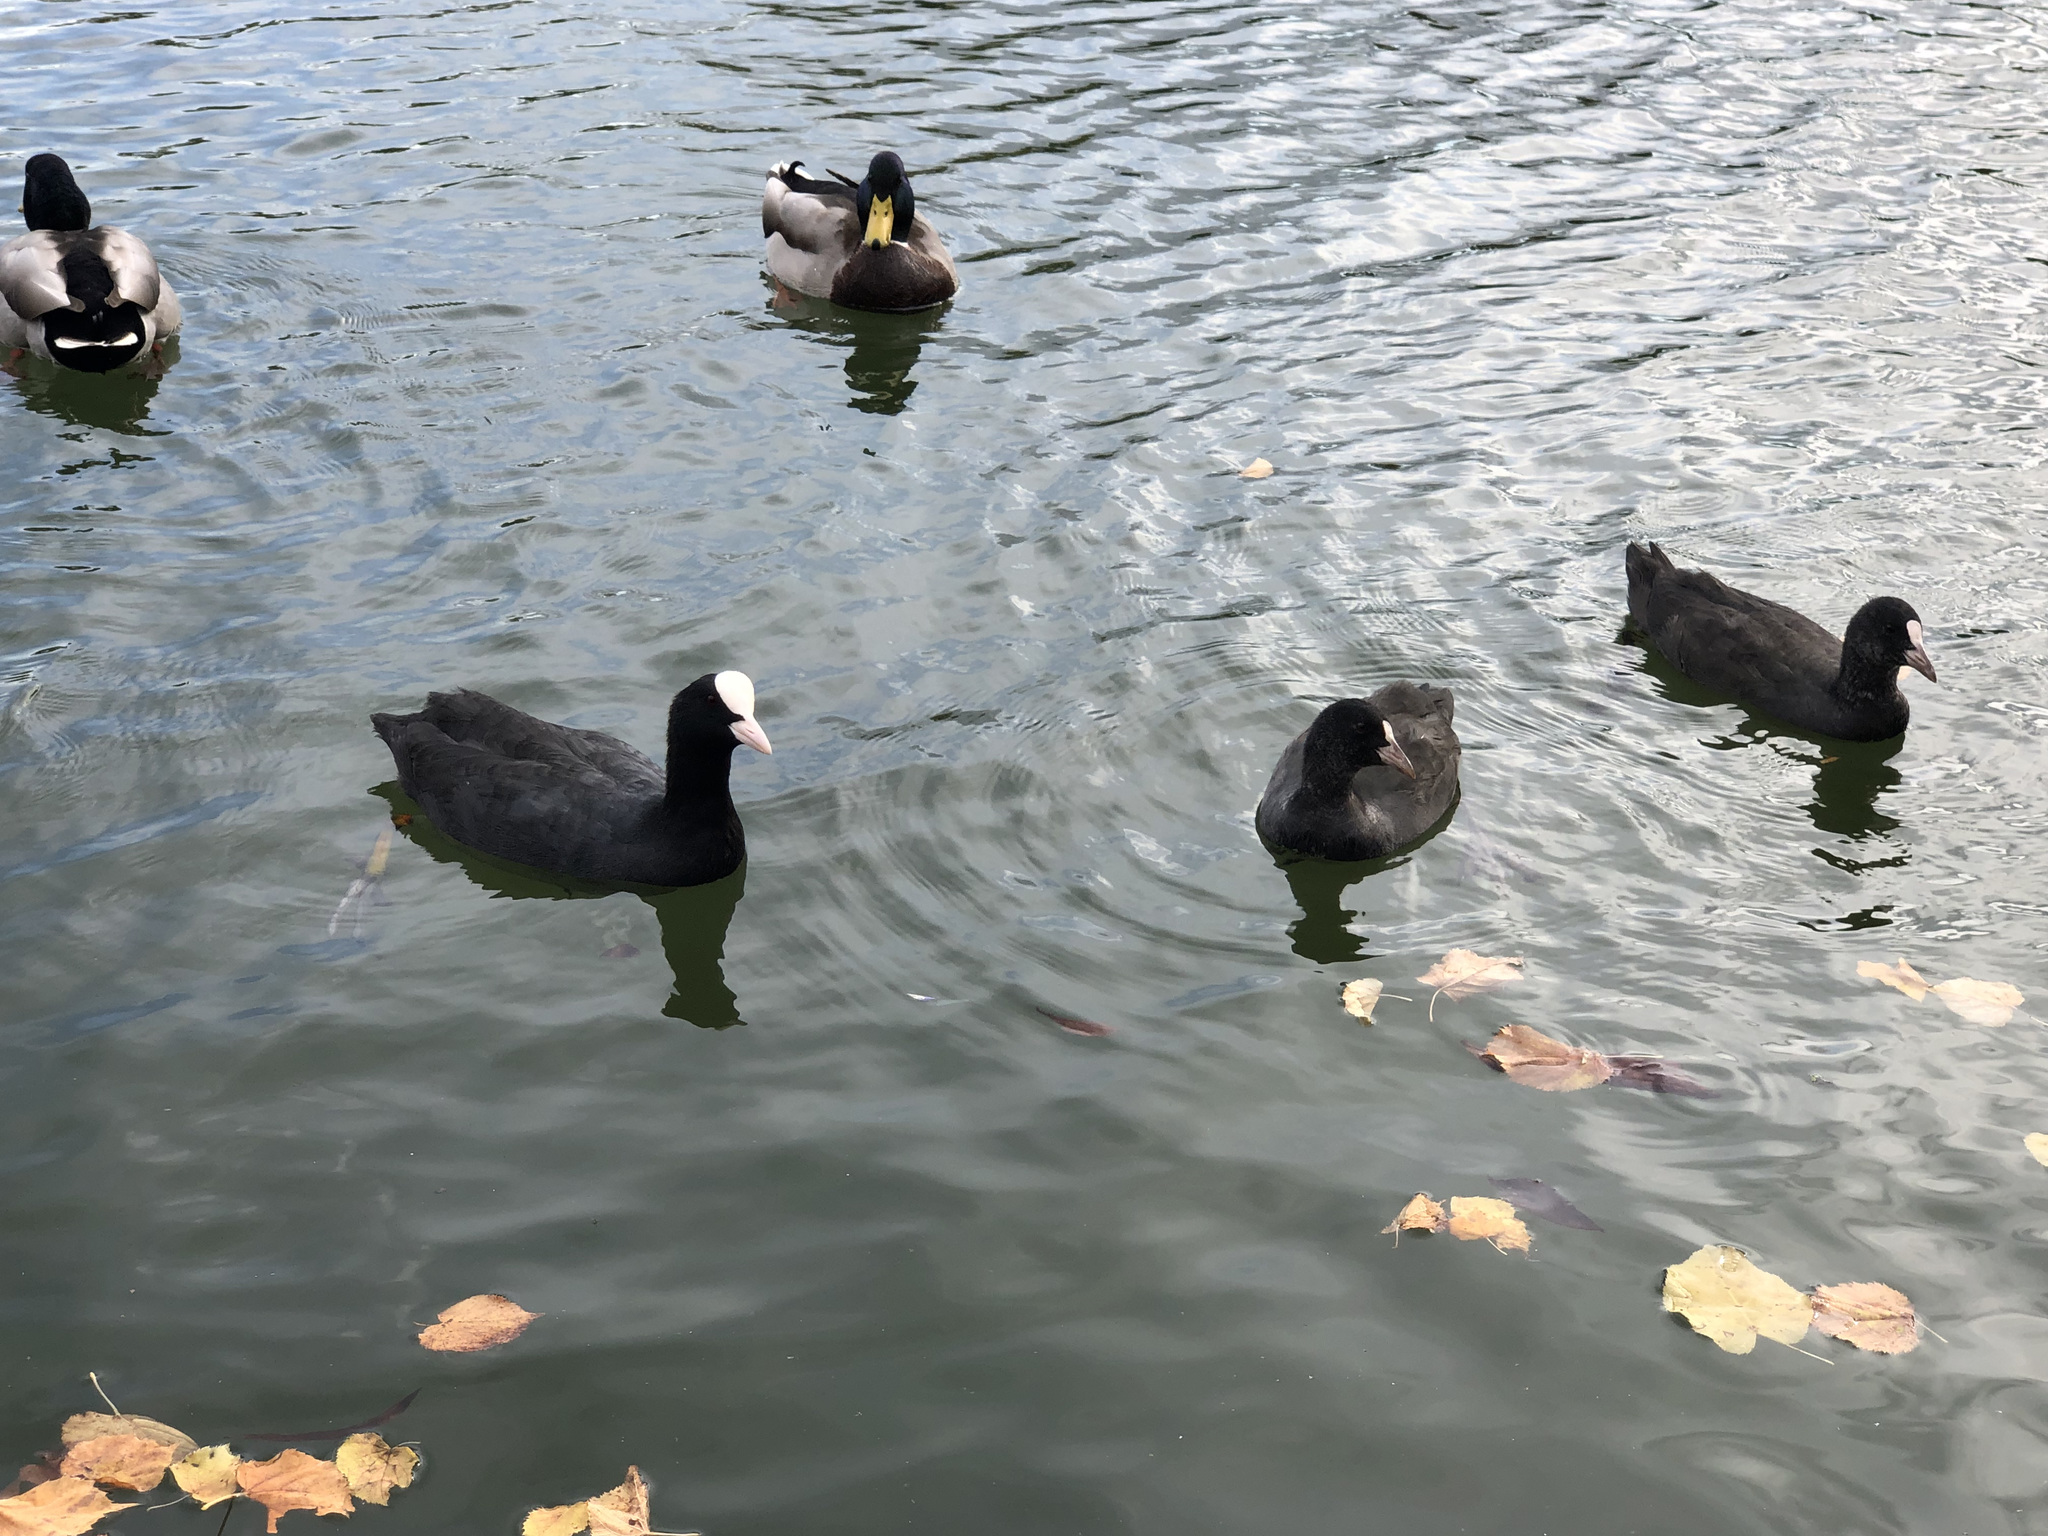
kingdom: Animalia
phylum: Chordata
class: Aves
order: Gruiformes
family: Rallidae
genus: Fulica
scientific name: Fulica atra
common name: Eurasian coot
